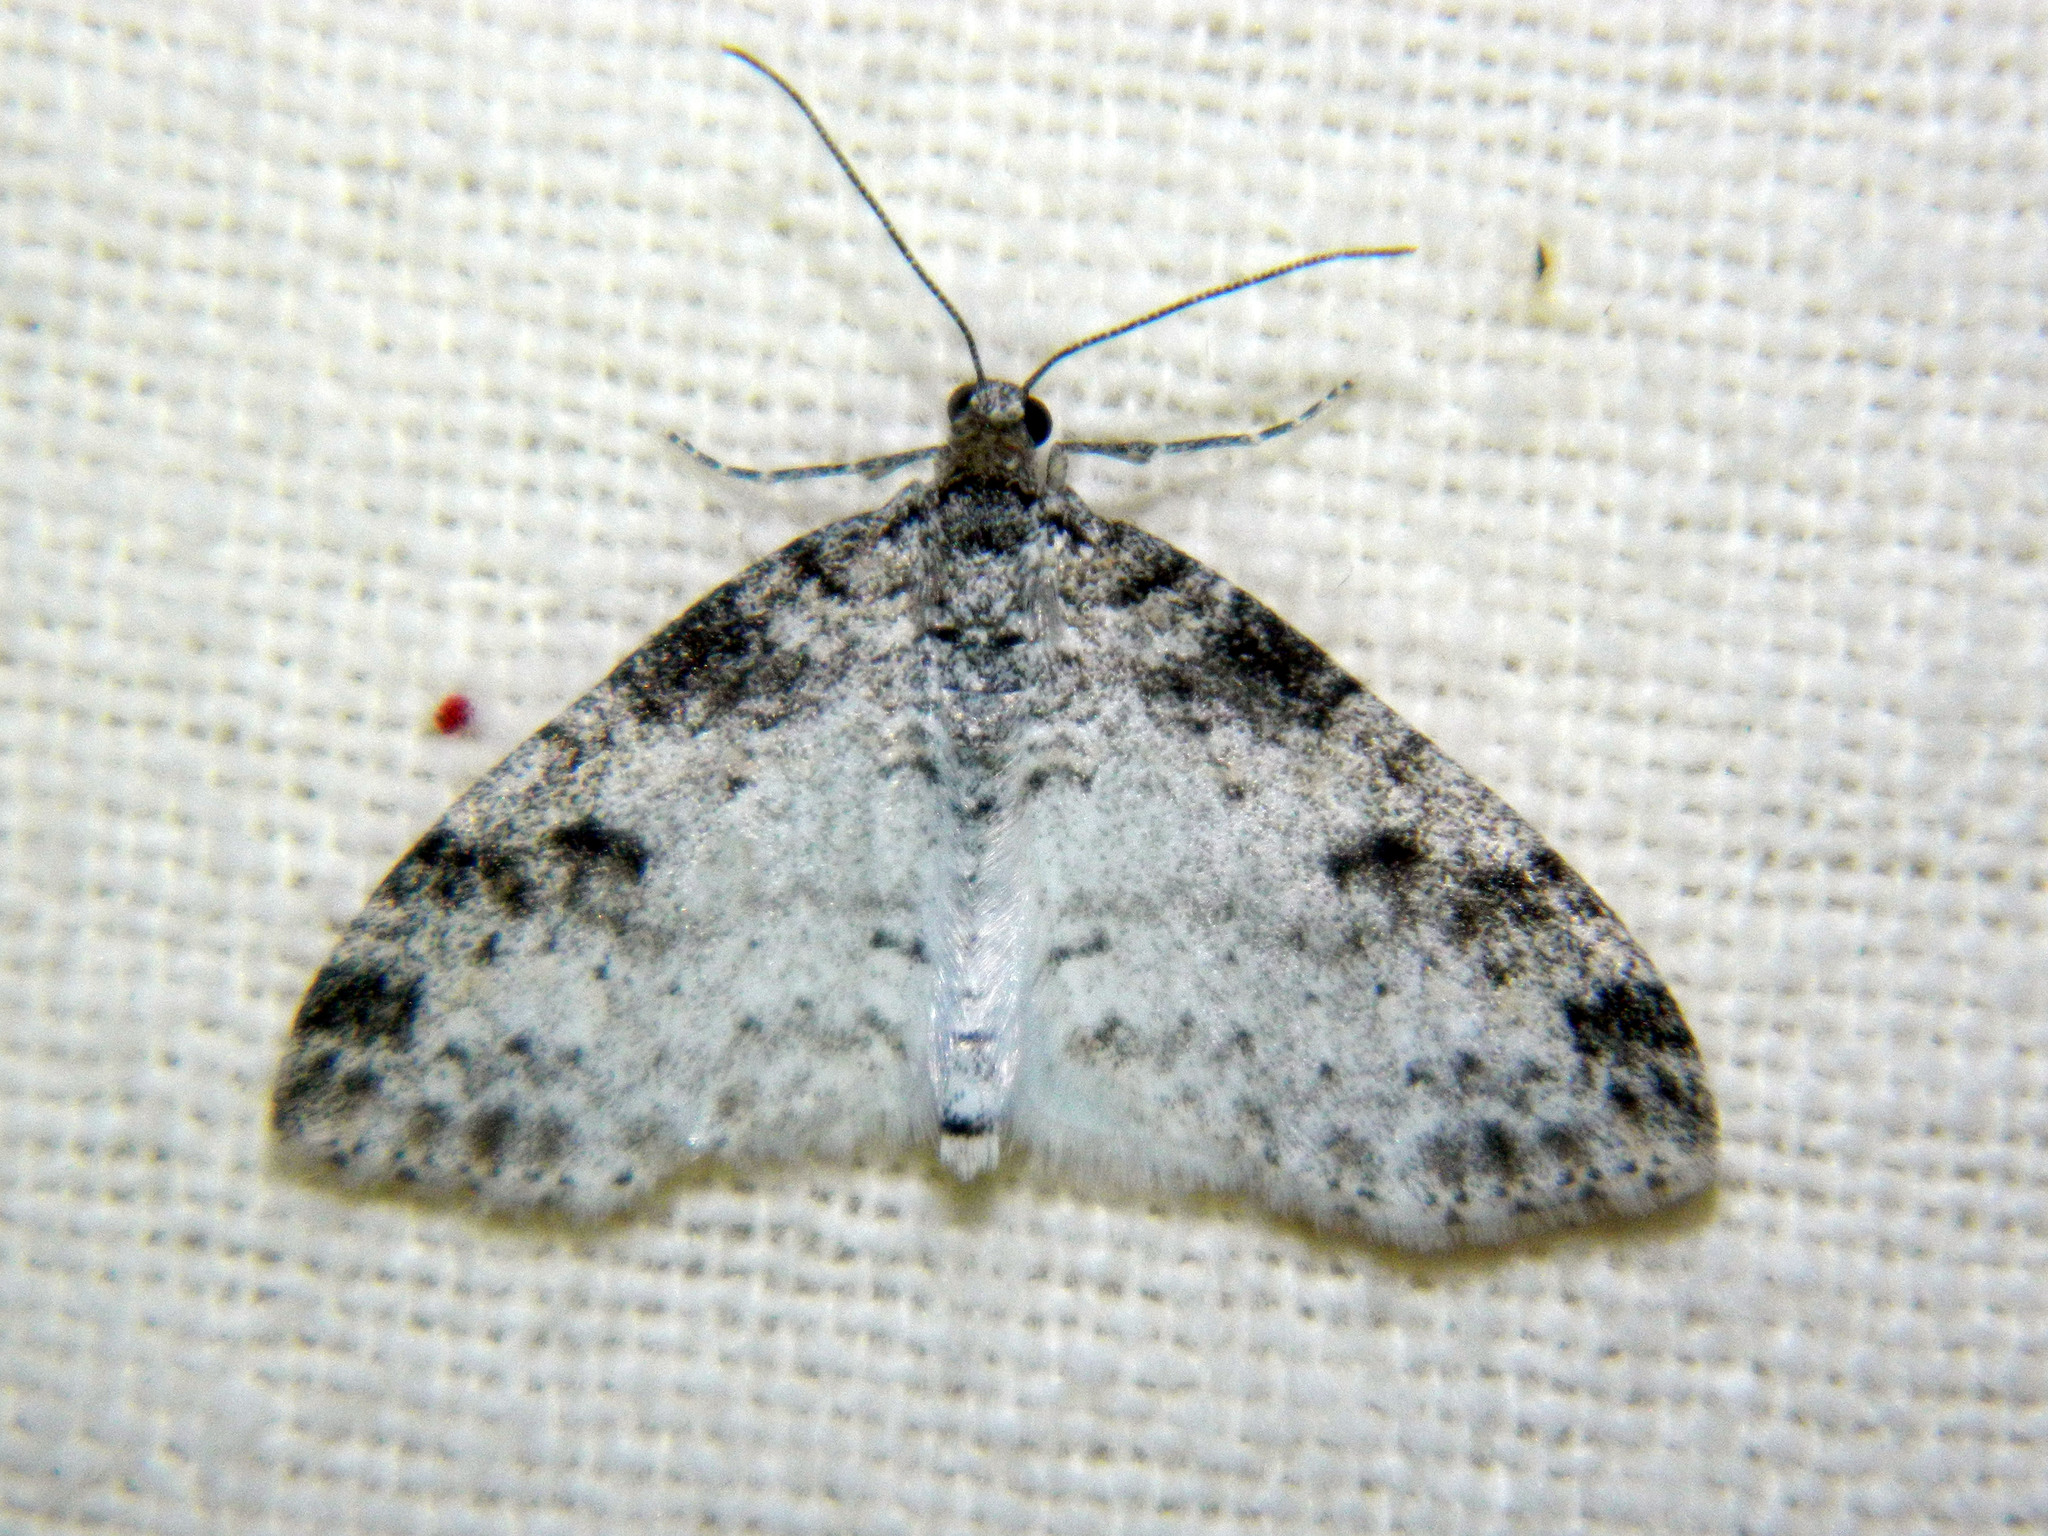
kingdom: Animalia
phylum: Arthropoda
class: Insecta
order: Lepidoptera
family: Geometridae
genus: Lobophora
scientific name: Lobophora nivigerata
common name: Powdered bigwing
